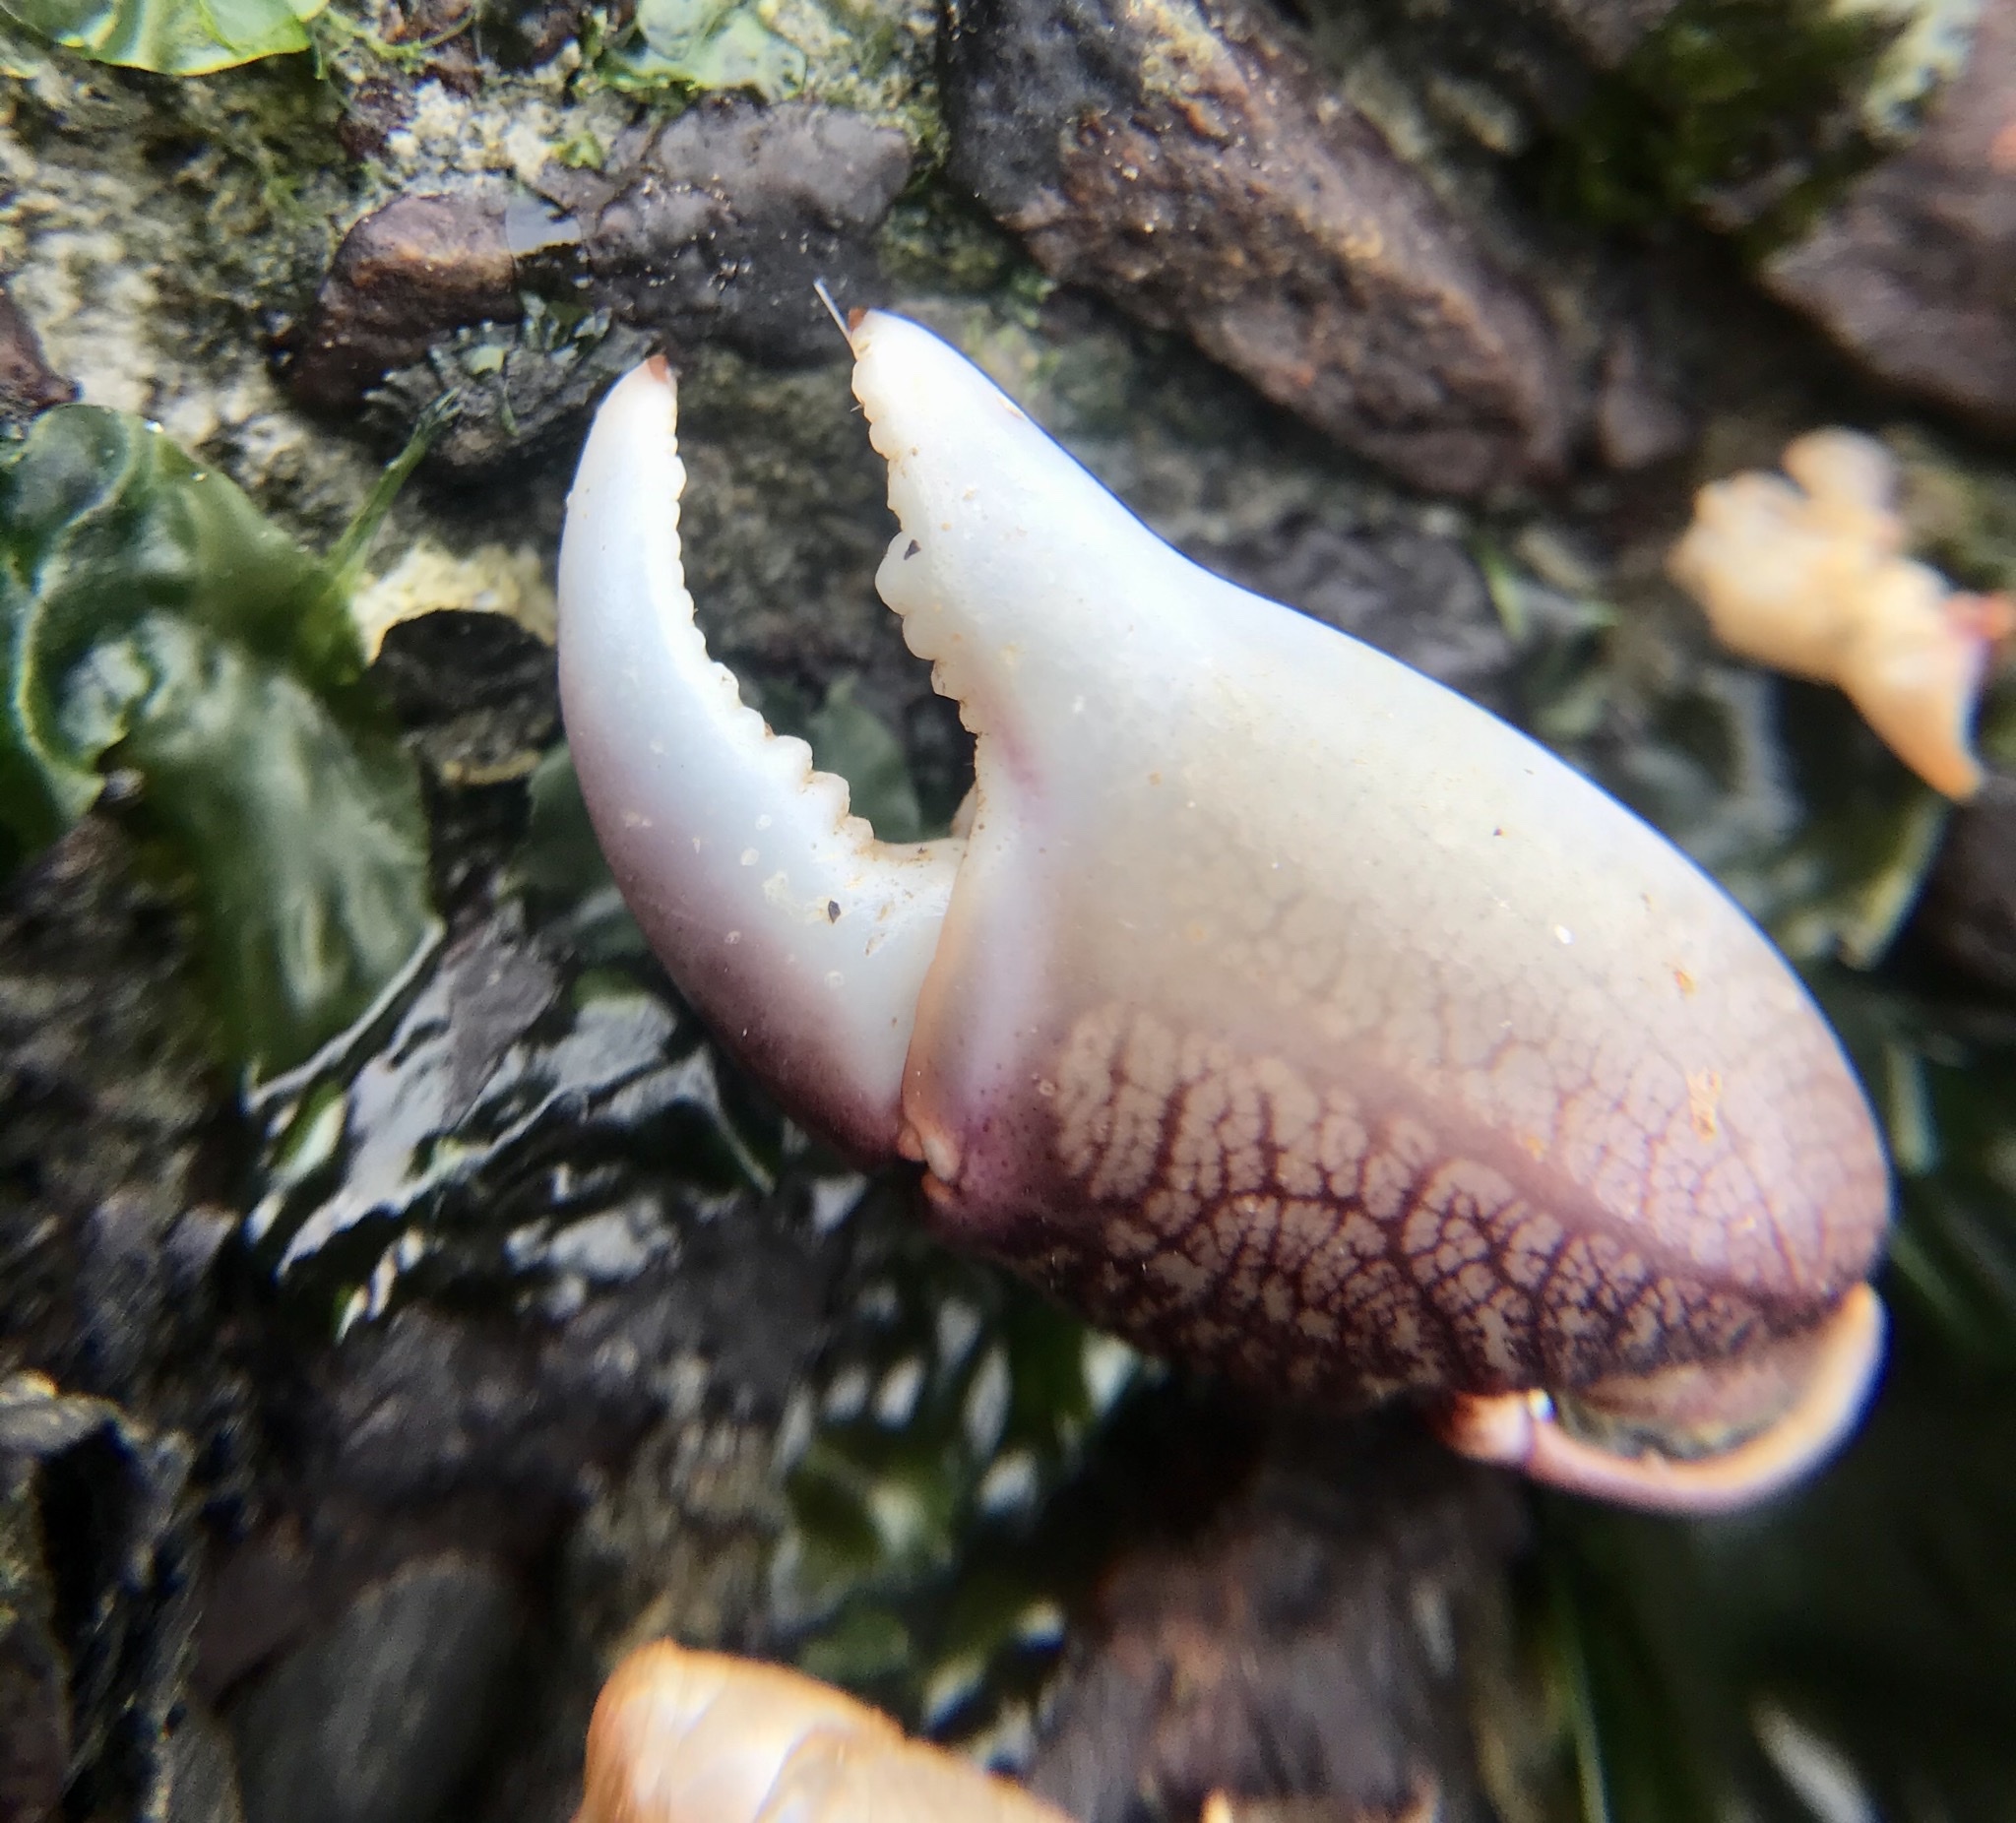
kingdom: Animalia
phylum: Arthropoda
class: Malacostraca
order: Decapoda
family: Grapsidae
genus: Pachygrapsus
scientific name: Pachygrapsus crassipes
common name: Striped shore crab
